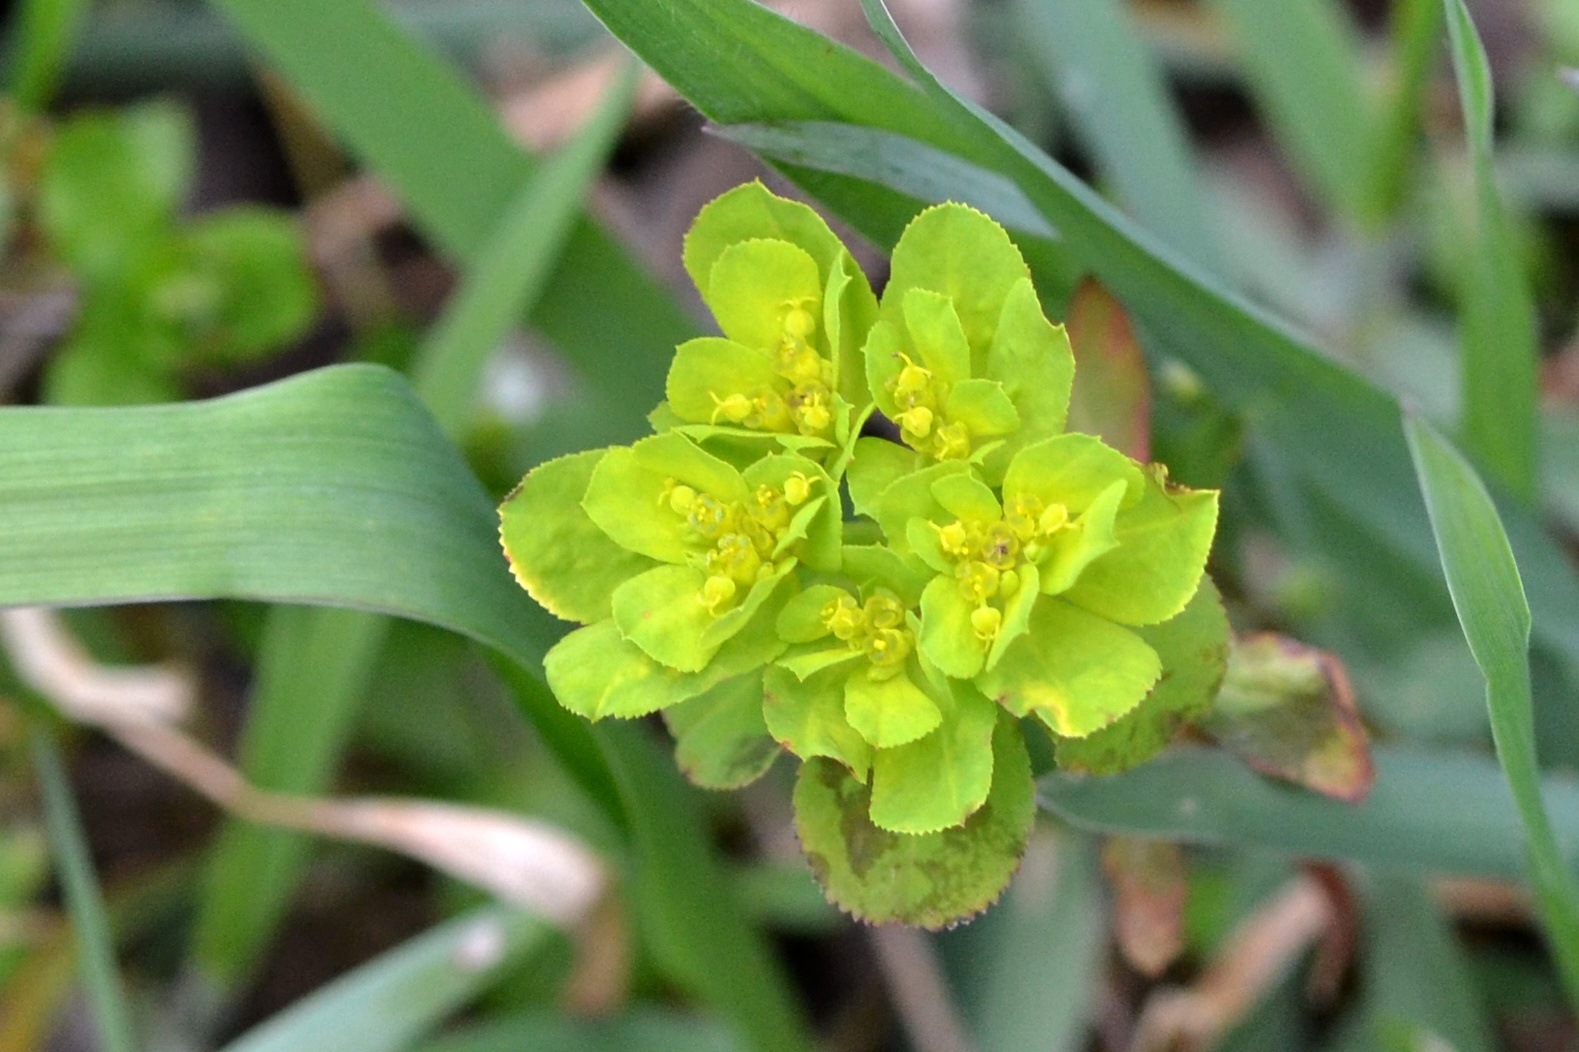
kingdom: Plantae
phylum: Tracheophyta
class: Magnoliopsida
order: Malpighiales
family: Euphorbiaceae
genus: Euphorbia
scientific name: Euphorbia helioscopia
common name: Sun spurge
